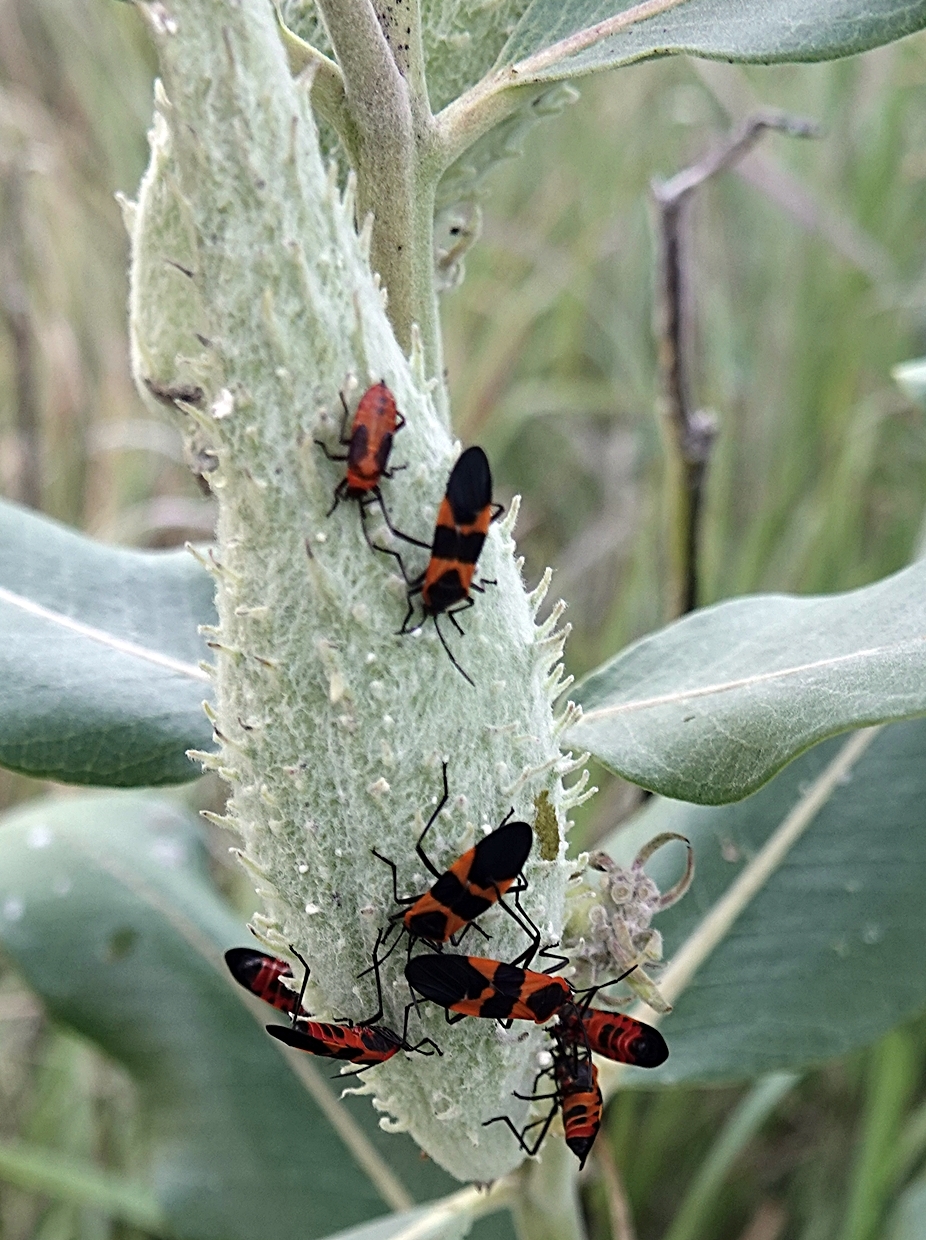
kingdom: Animalia
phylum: Arthropoda
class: Insecta
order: Hemiptera
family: Lygaeidae
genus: Oncopeltus
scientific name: Oncopeltus fasciatus
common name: Large milkweed bug
